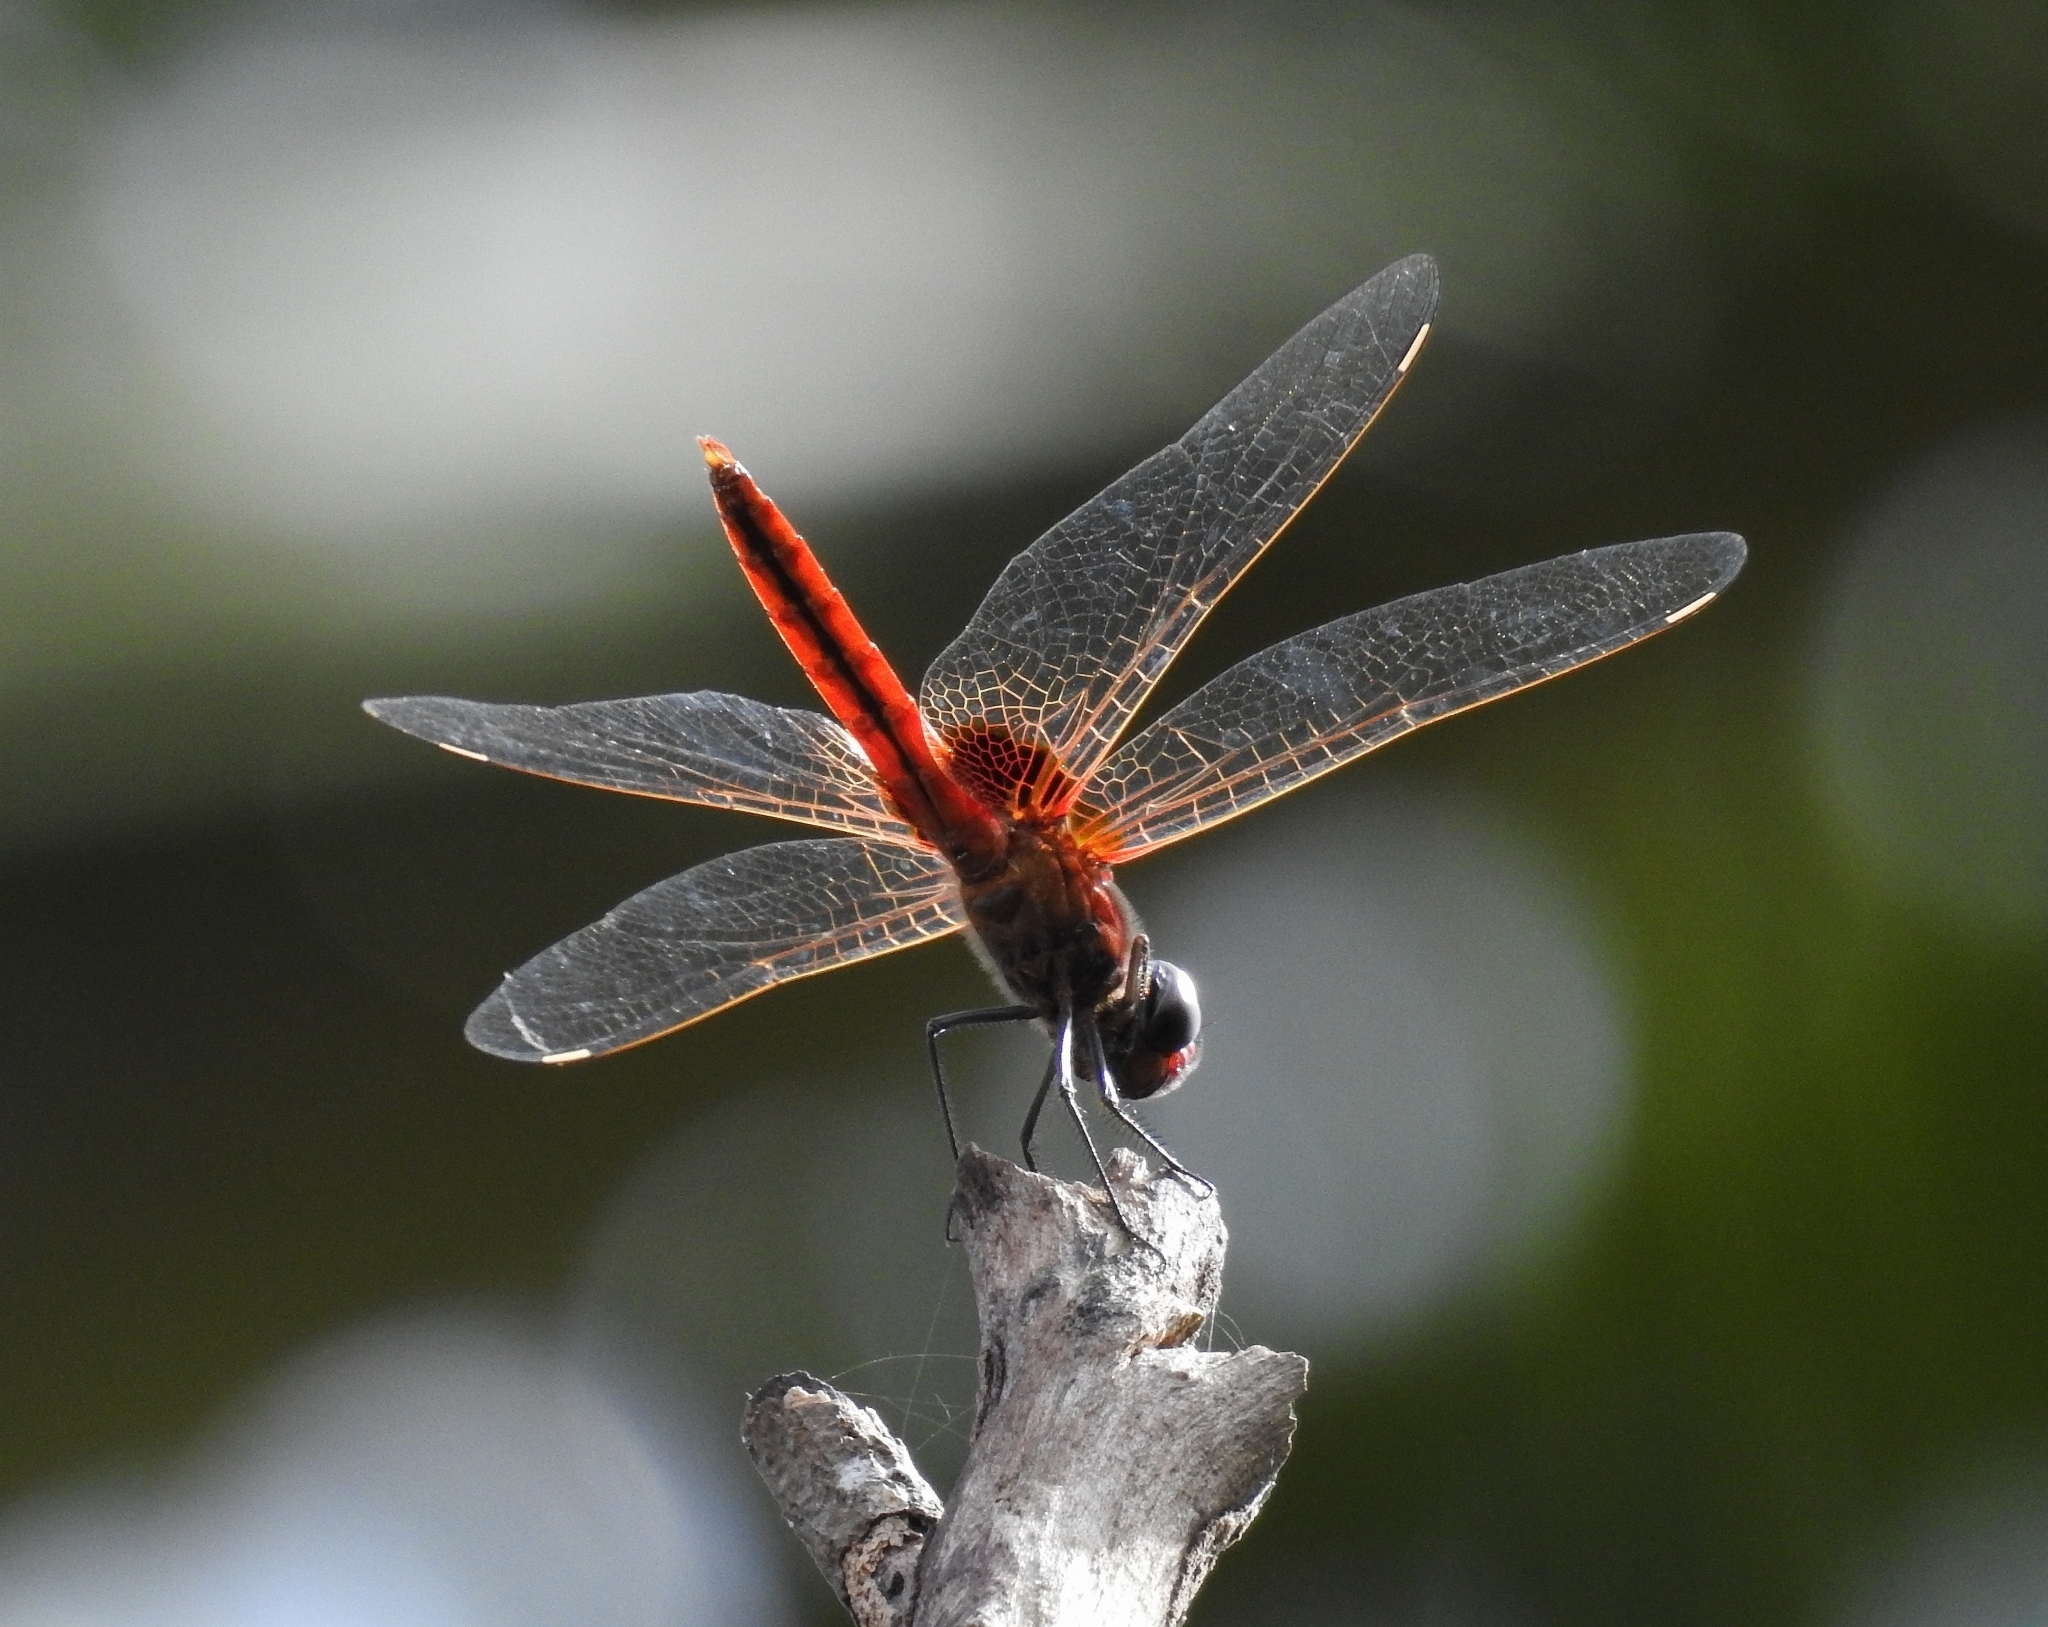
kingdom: Animalia
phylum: Arthropoda
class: Insecta
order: Odonata
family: Libellulidae
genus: Urothemis
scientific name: Urothemis signata
